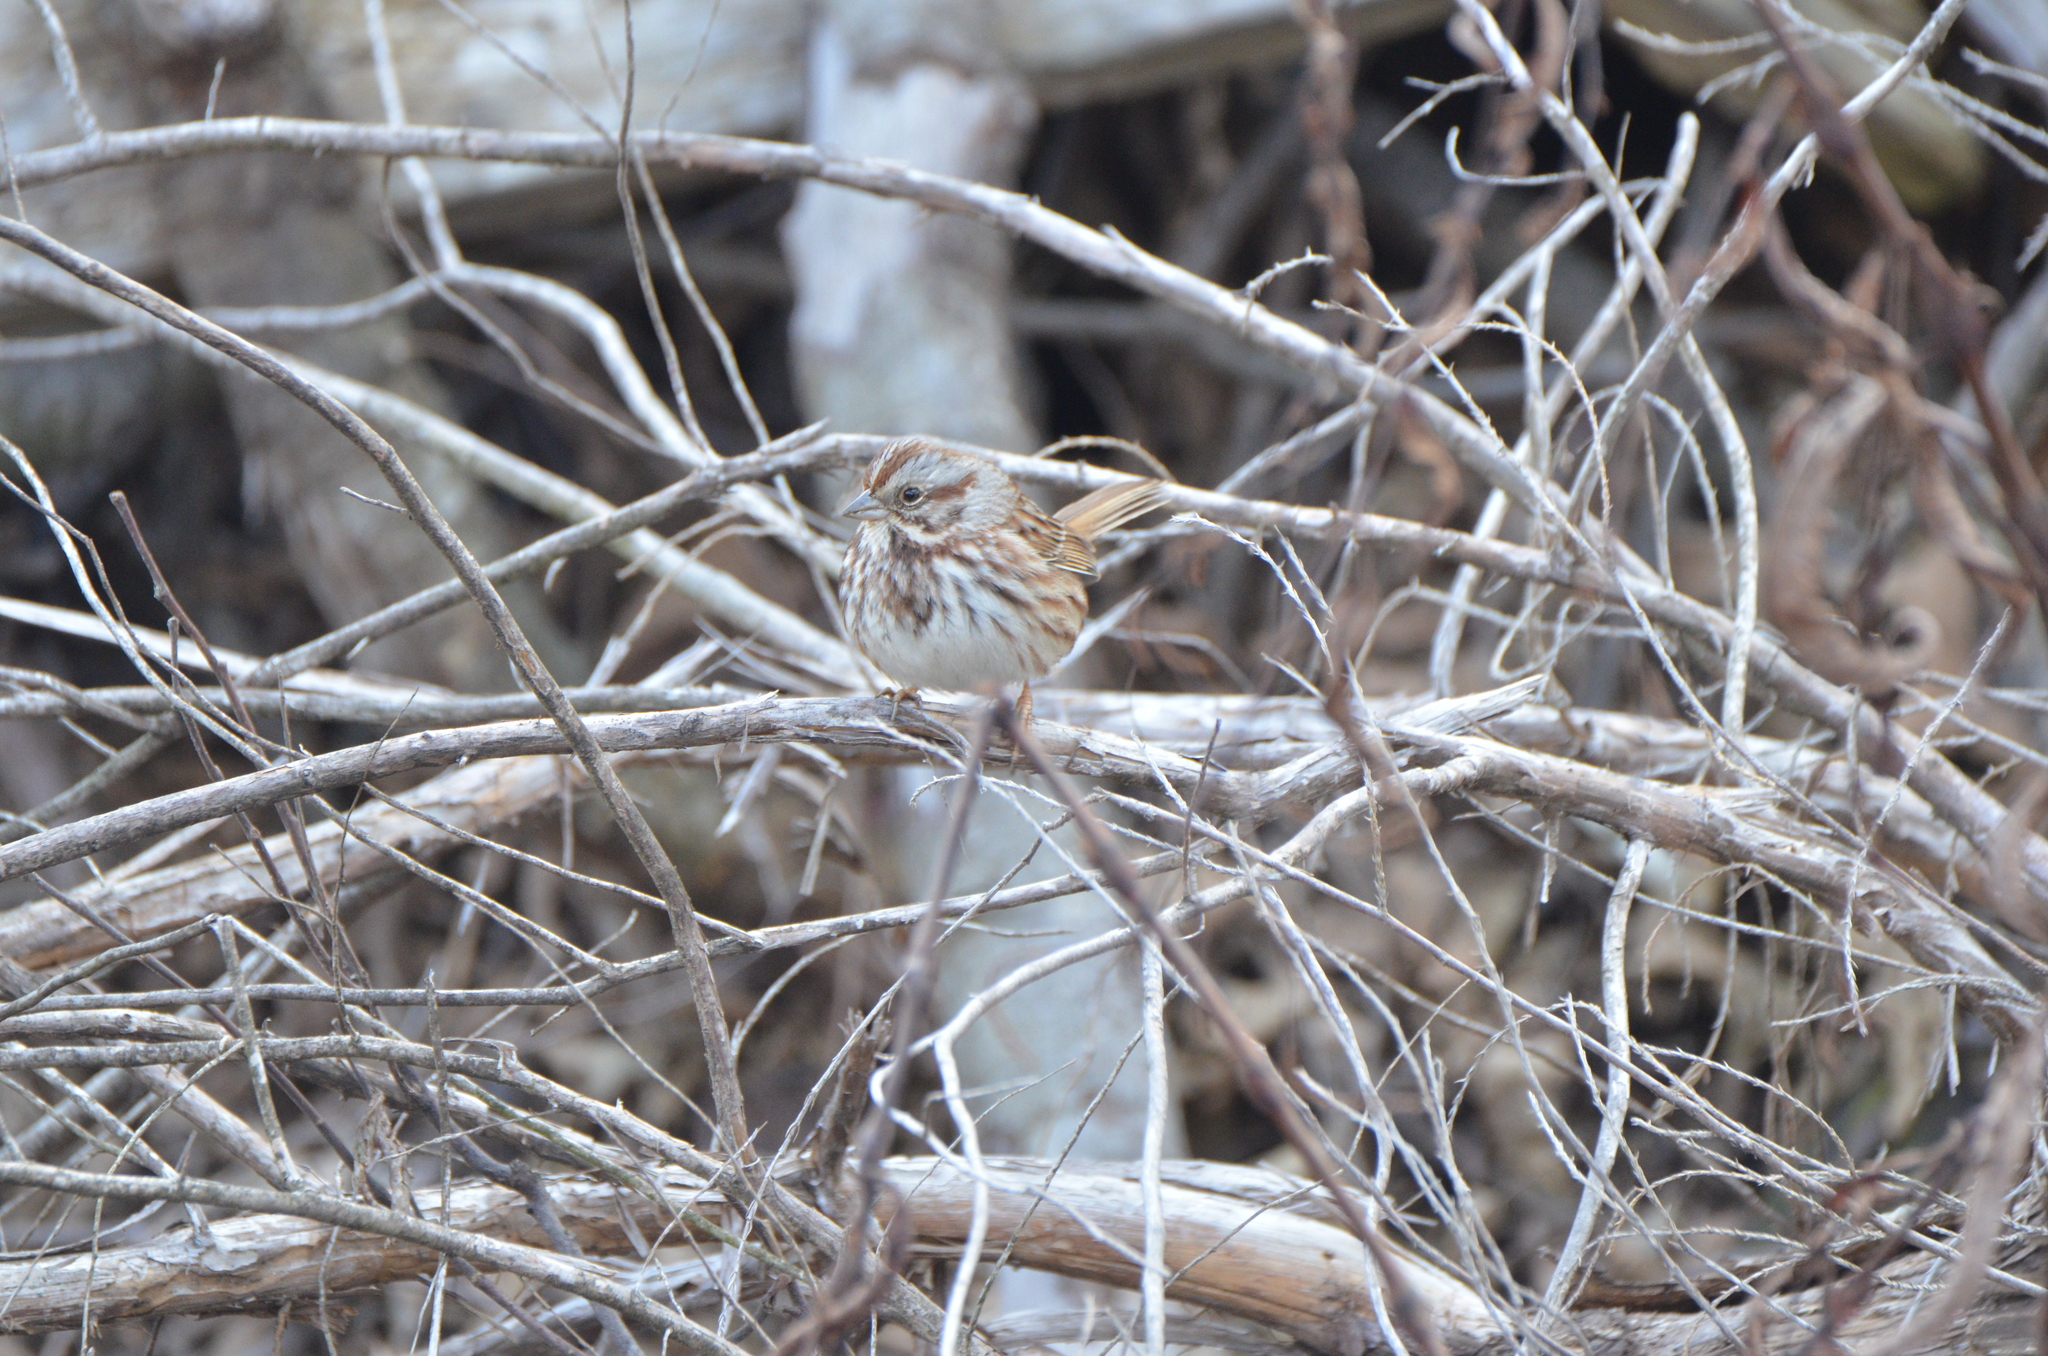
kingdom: Animalia
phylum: Chordata
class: Aves
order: Passeriformes
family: Passerellidae
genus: Melospiza
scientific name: Melospiza melodia
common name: Song sparrow
